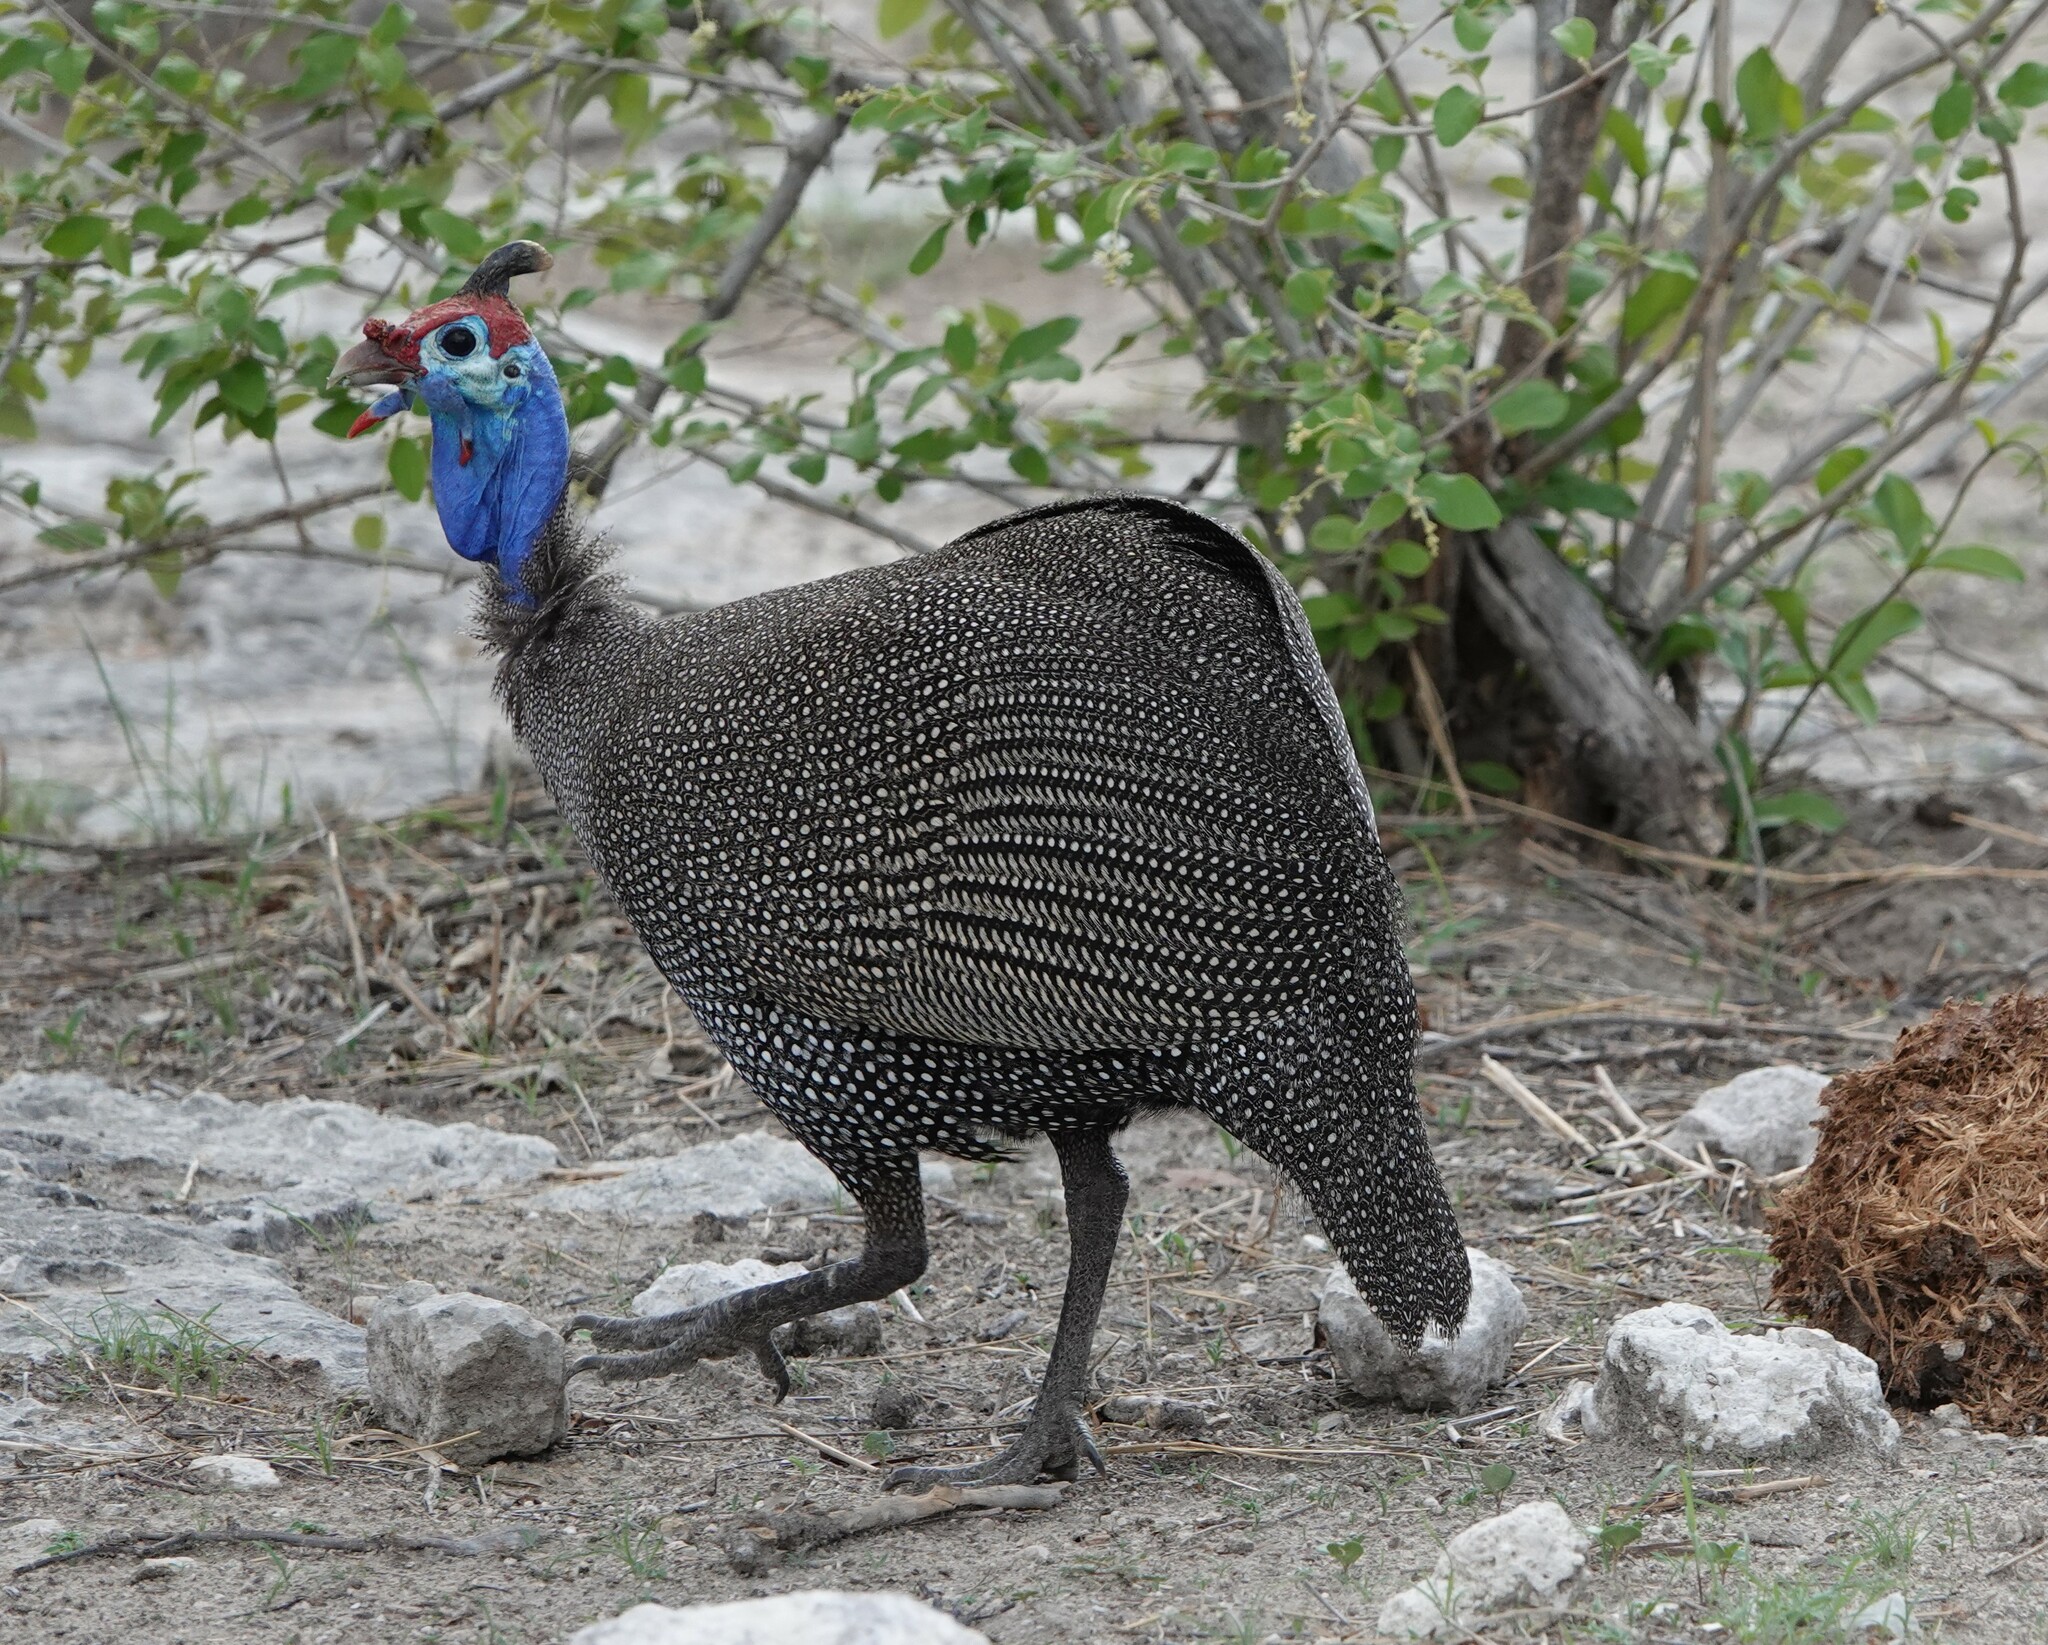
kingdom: Animalia
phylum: Chordata
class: Aves
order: Galliformes
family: Numididae
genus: Numida
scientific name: Numida meleagris
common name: Helmeted guineafowl
